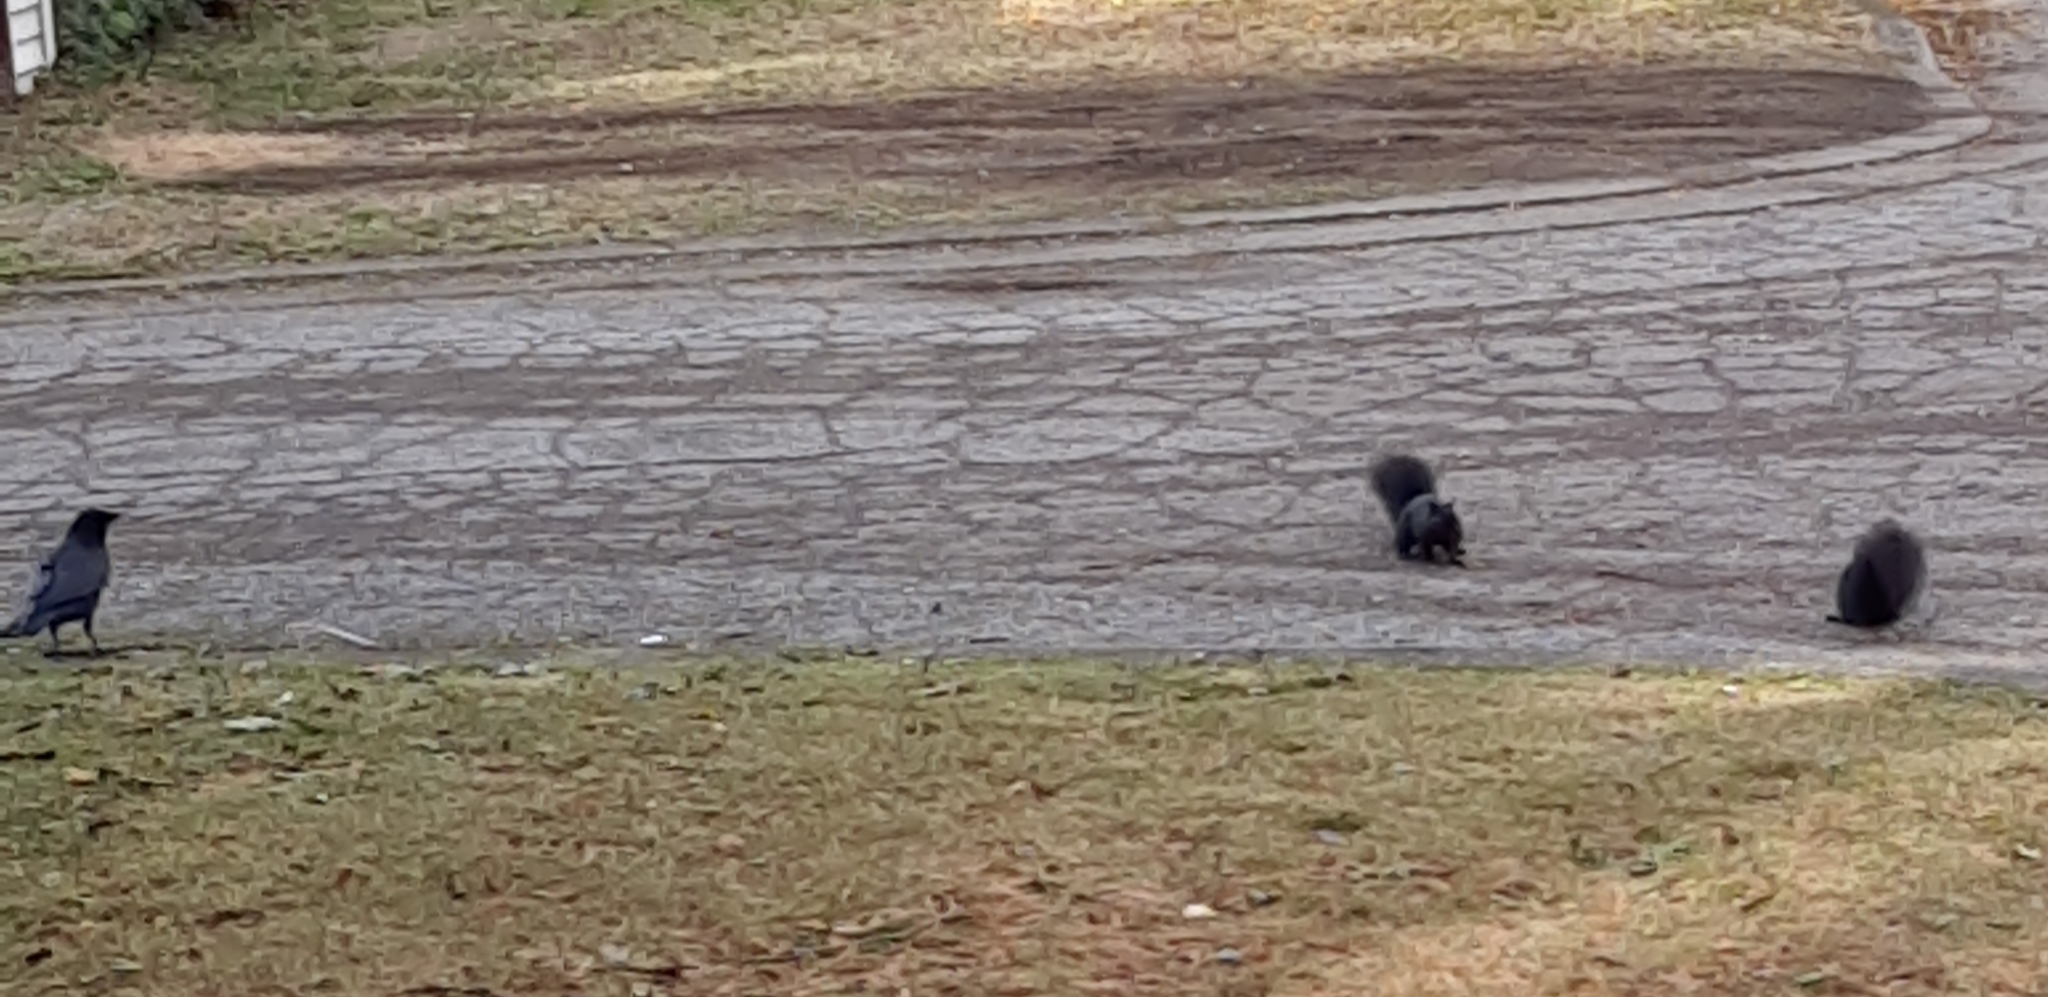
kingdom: Animalia
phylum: Chordata
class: Mammalia
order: Rodentia
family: Sciuridae
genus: Sciurus
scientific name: Sciurus carolinensis
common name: Eastern gray squirrel
